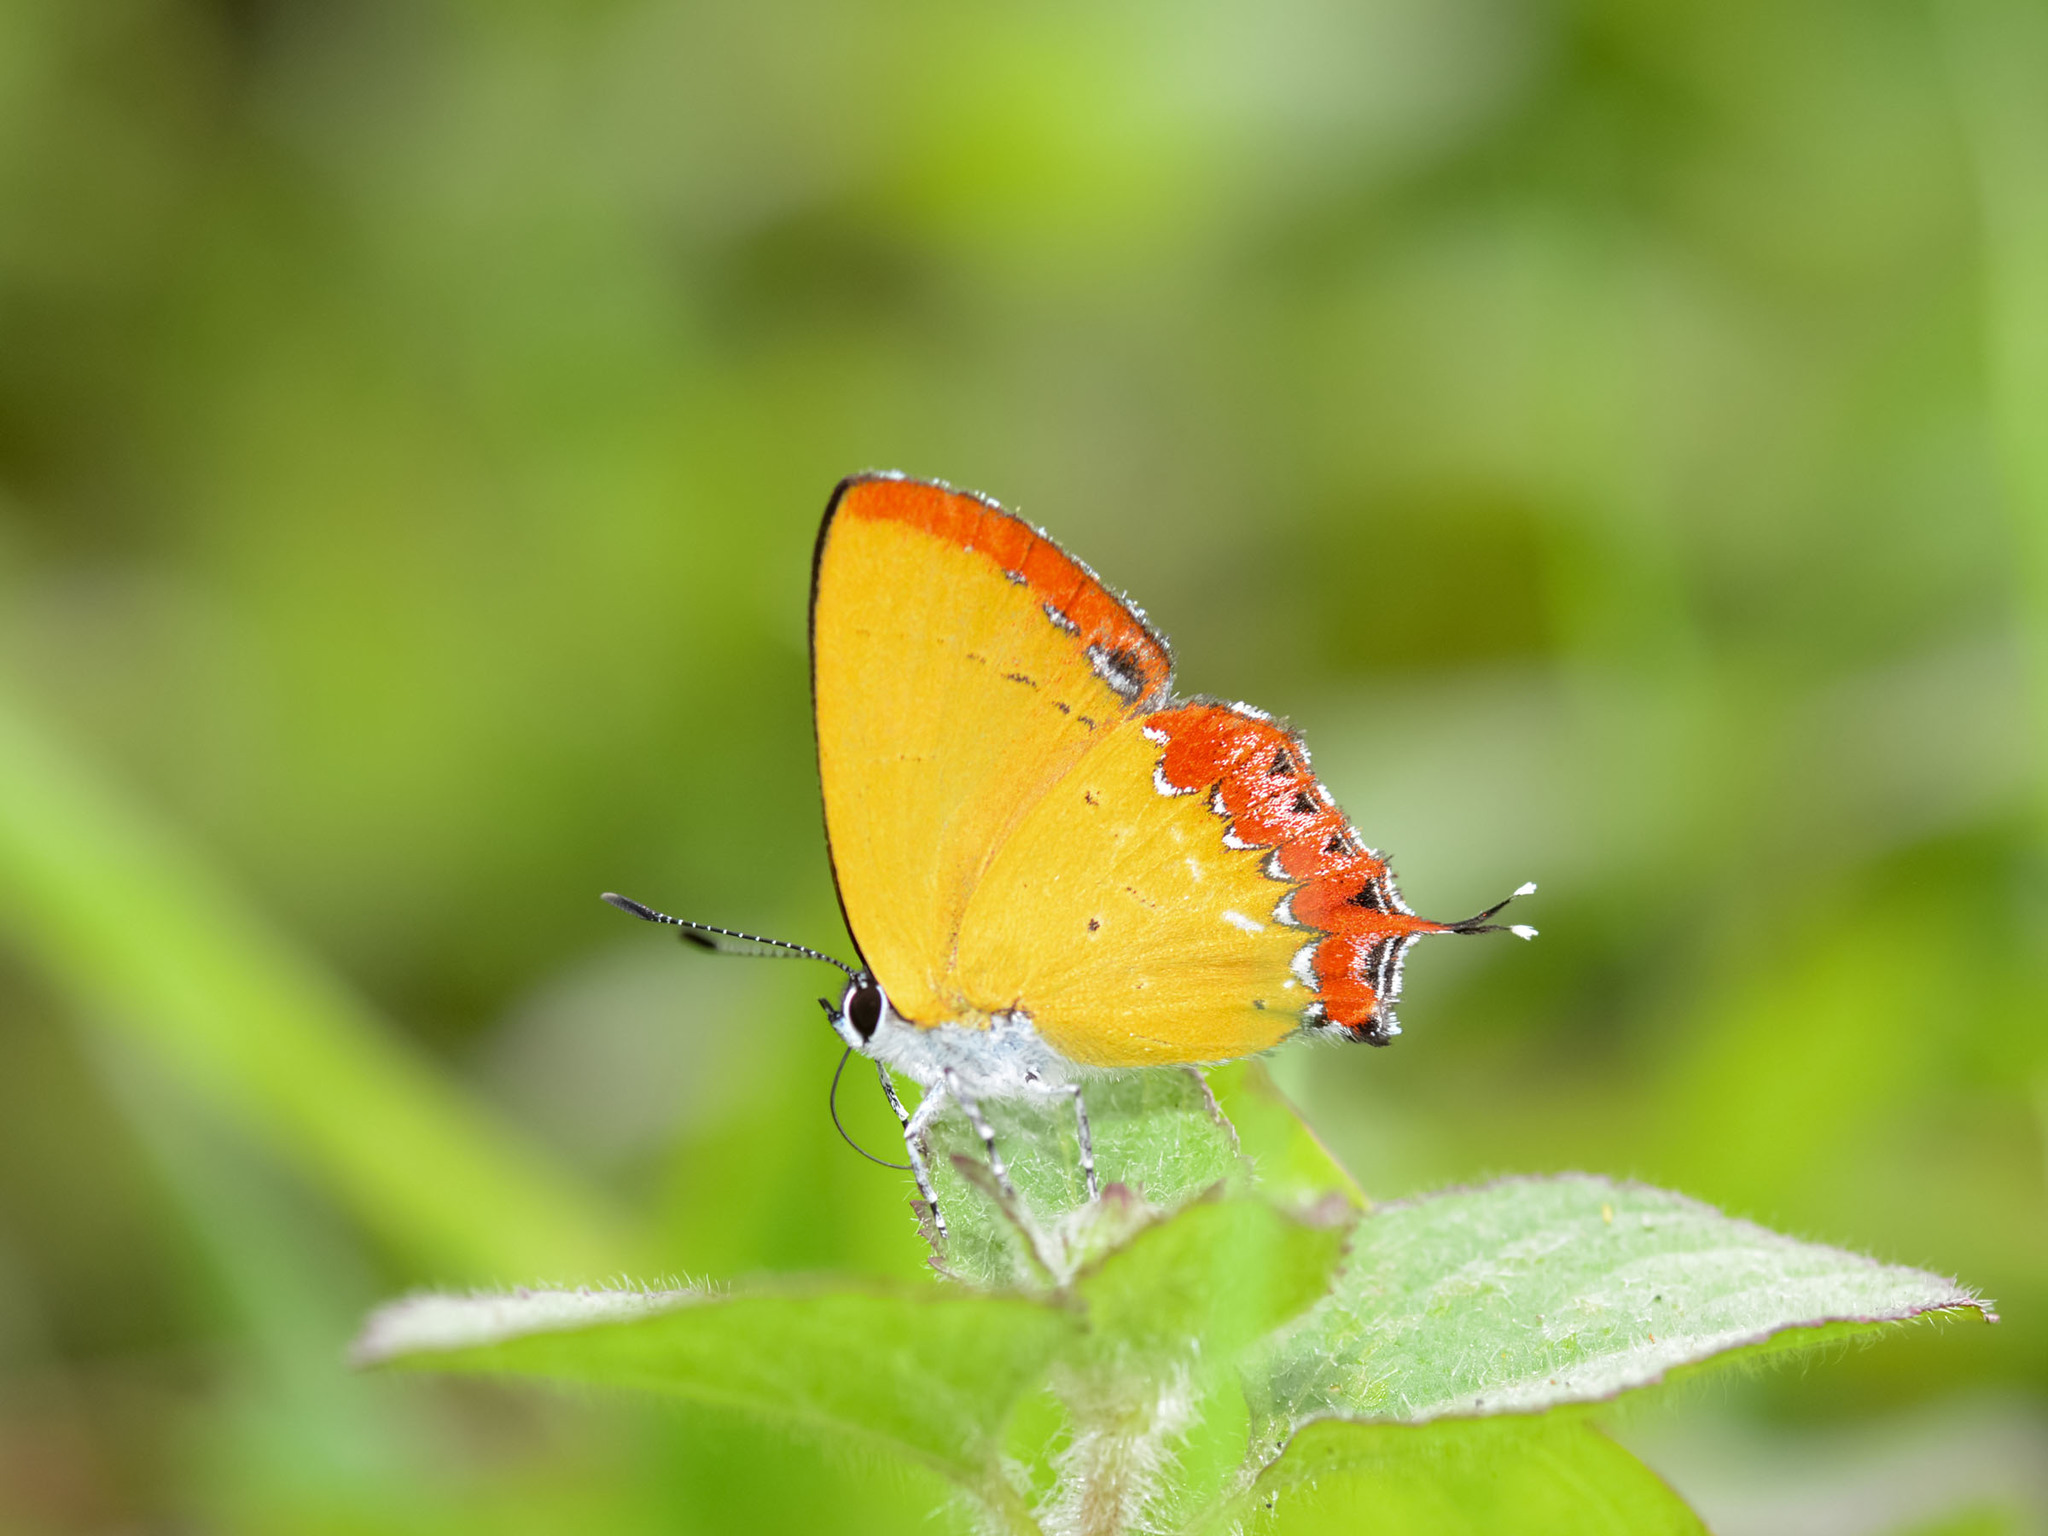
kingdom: Animalia
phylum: Arthropoda
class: Insecta
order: Lepidoptera
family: Lycaenidae
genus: Heliophorus
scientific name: Heliophorus epicles
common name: Purple sapphire
